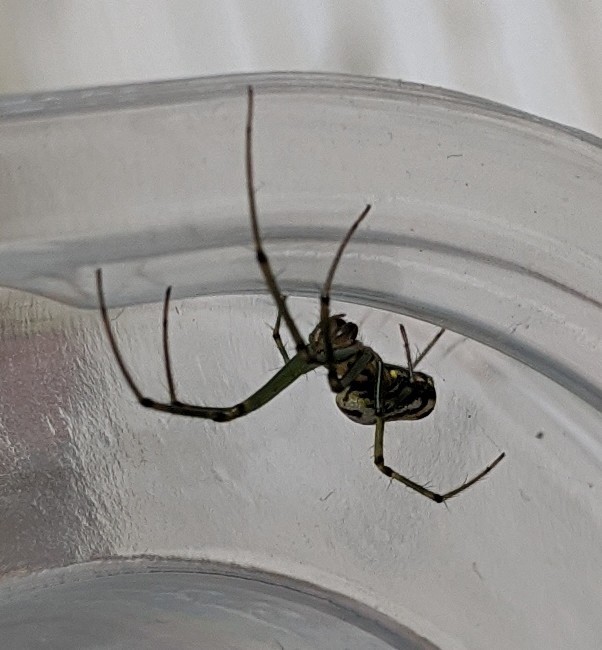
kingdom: Animalia
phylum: Arthropoda
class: Arachnida
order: Araneae
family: Tetragnathidae
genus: Leucauge
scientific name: Leucauge venusta
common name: Longjawed orb weavers
